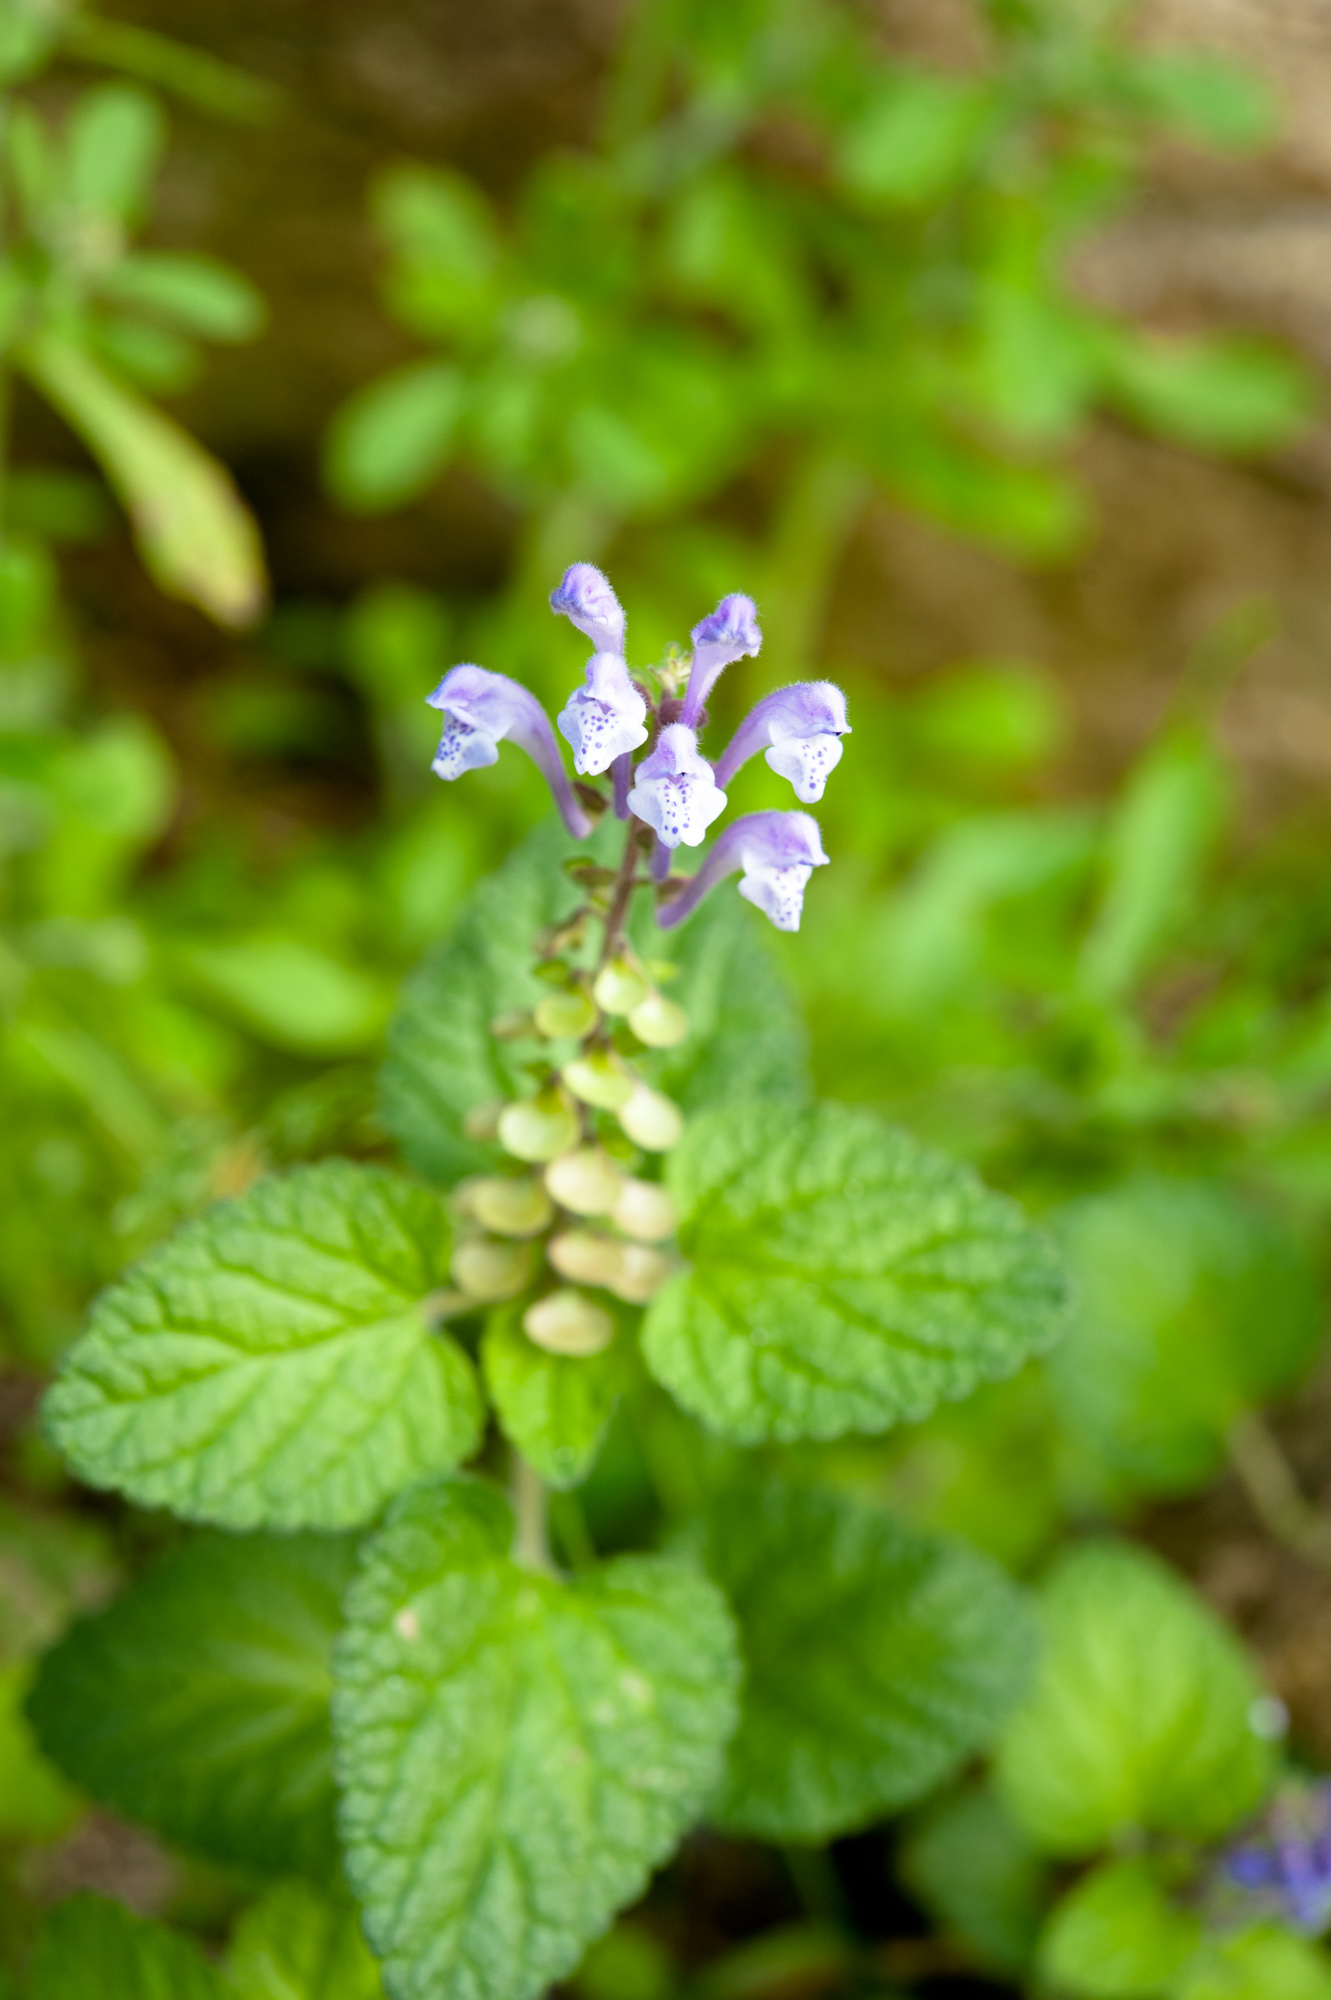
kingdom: Plantae
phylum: Tracheophyta
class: Magnoliopsida
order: Lamiales
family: Lamiaceae
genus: Scutellaria
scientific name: Scutellaria indica
